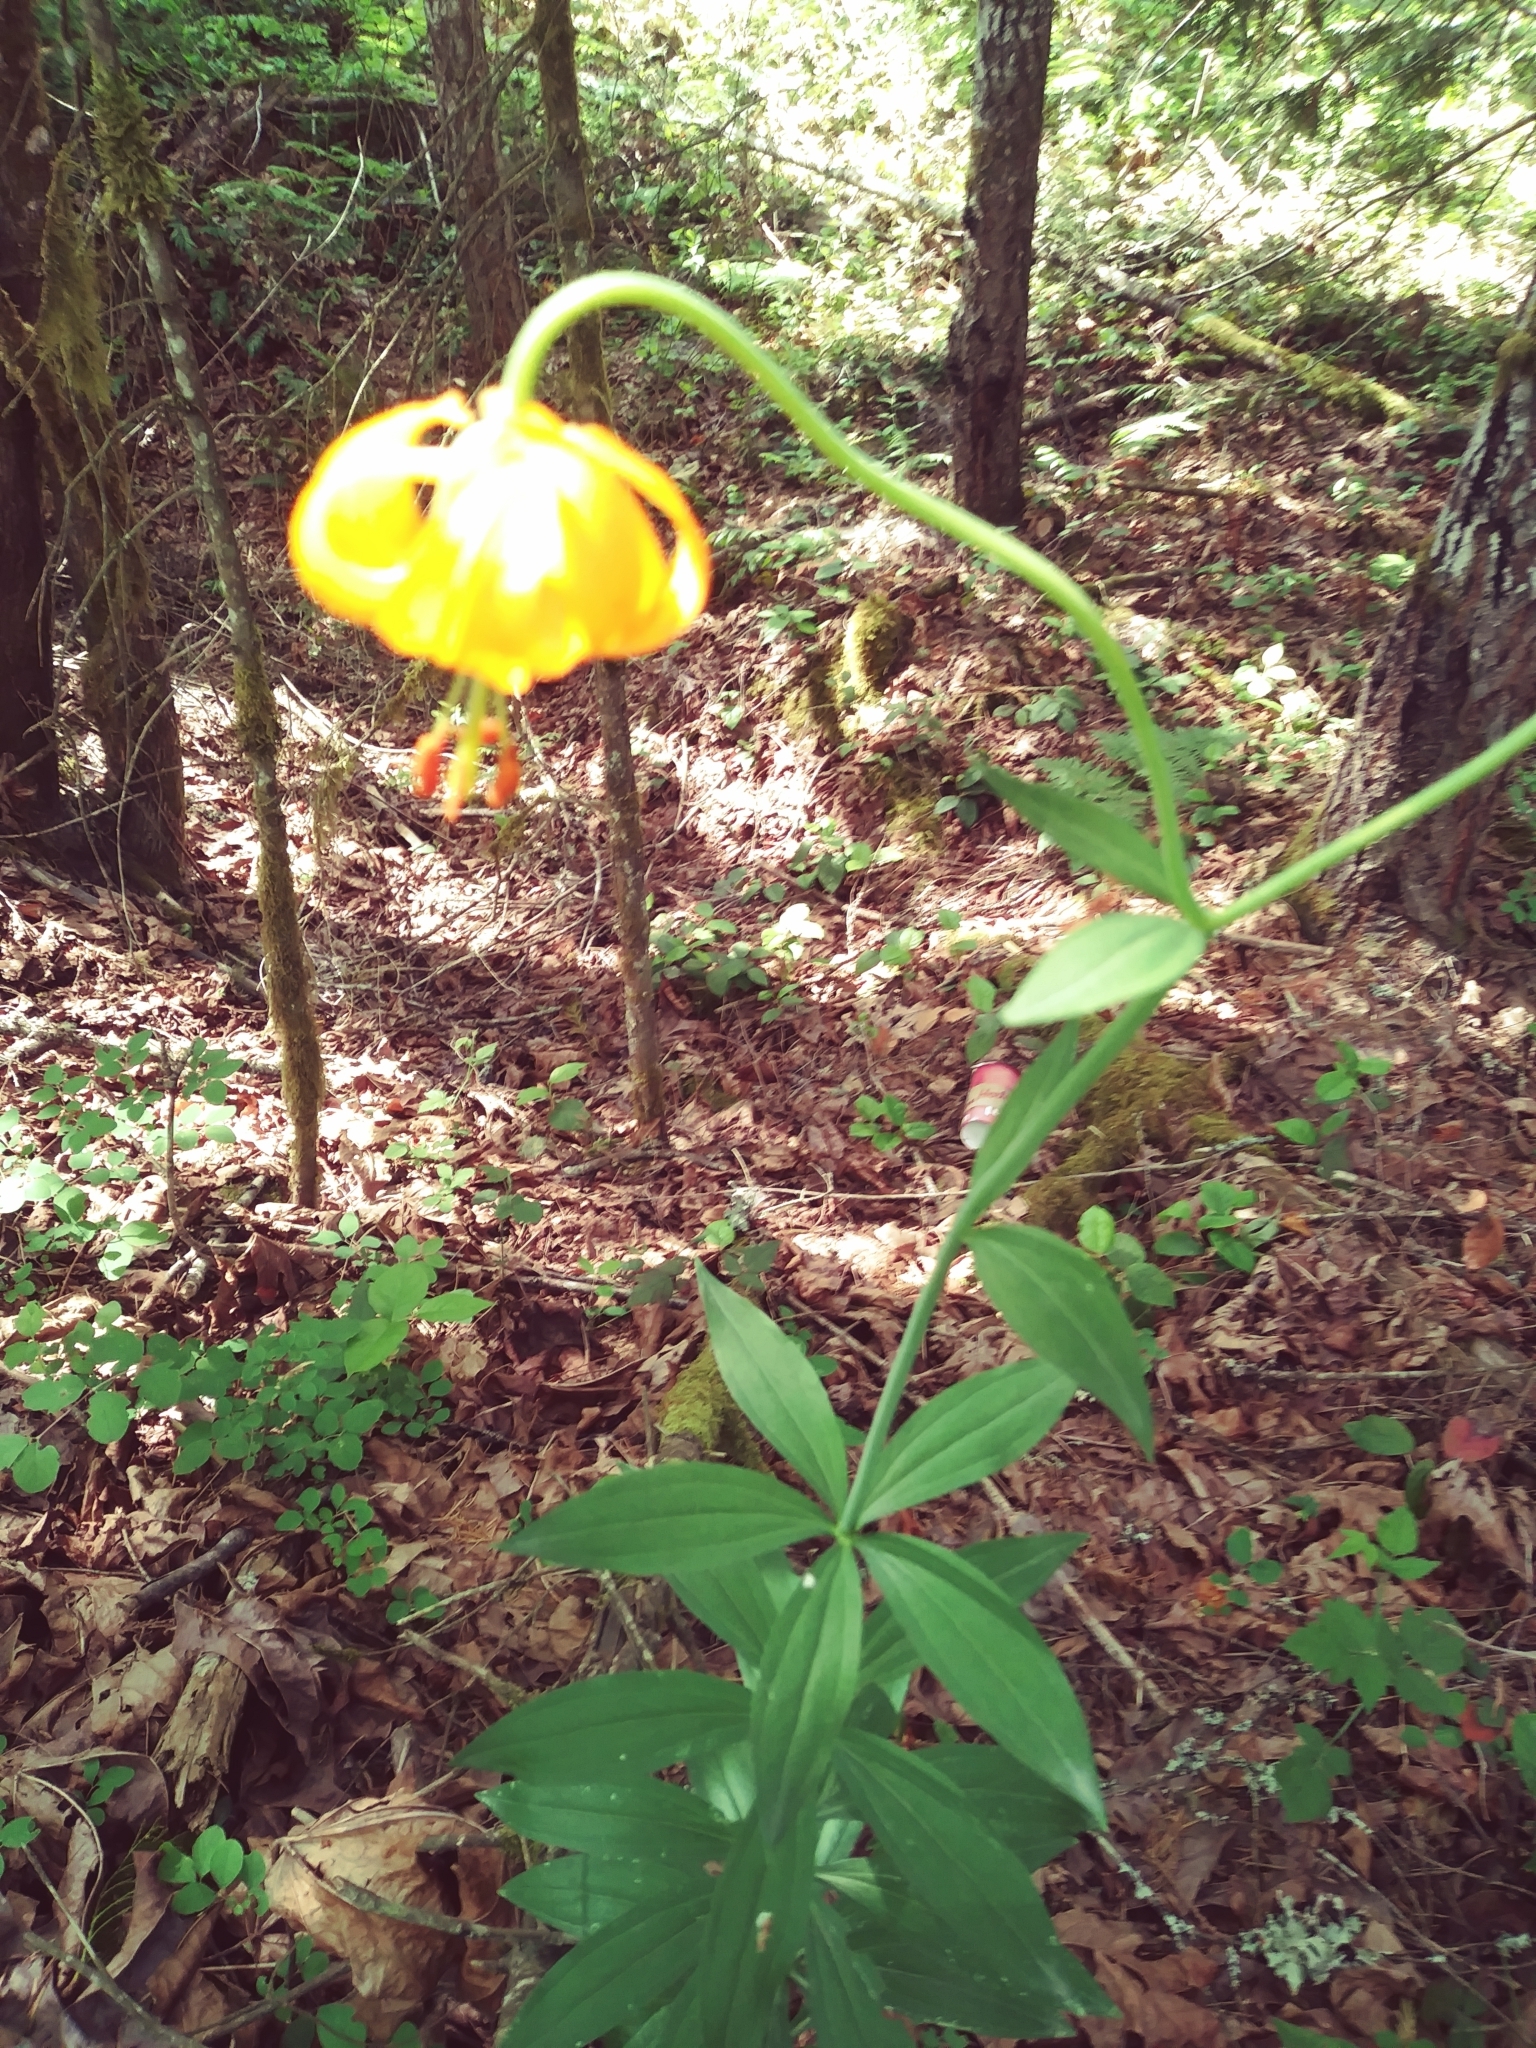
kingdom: Plantae
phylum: Tracheophyta
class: Liliopsida
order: Liliales
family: Liliaceae
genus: Lilium
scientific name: Lilium columbianum
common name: Columbia lily
